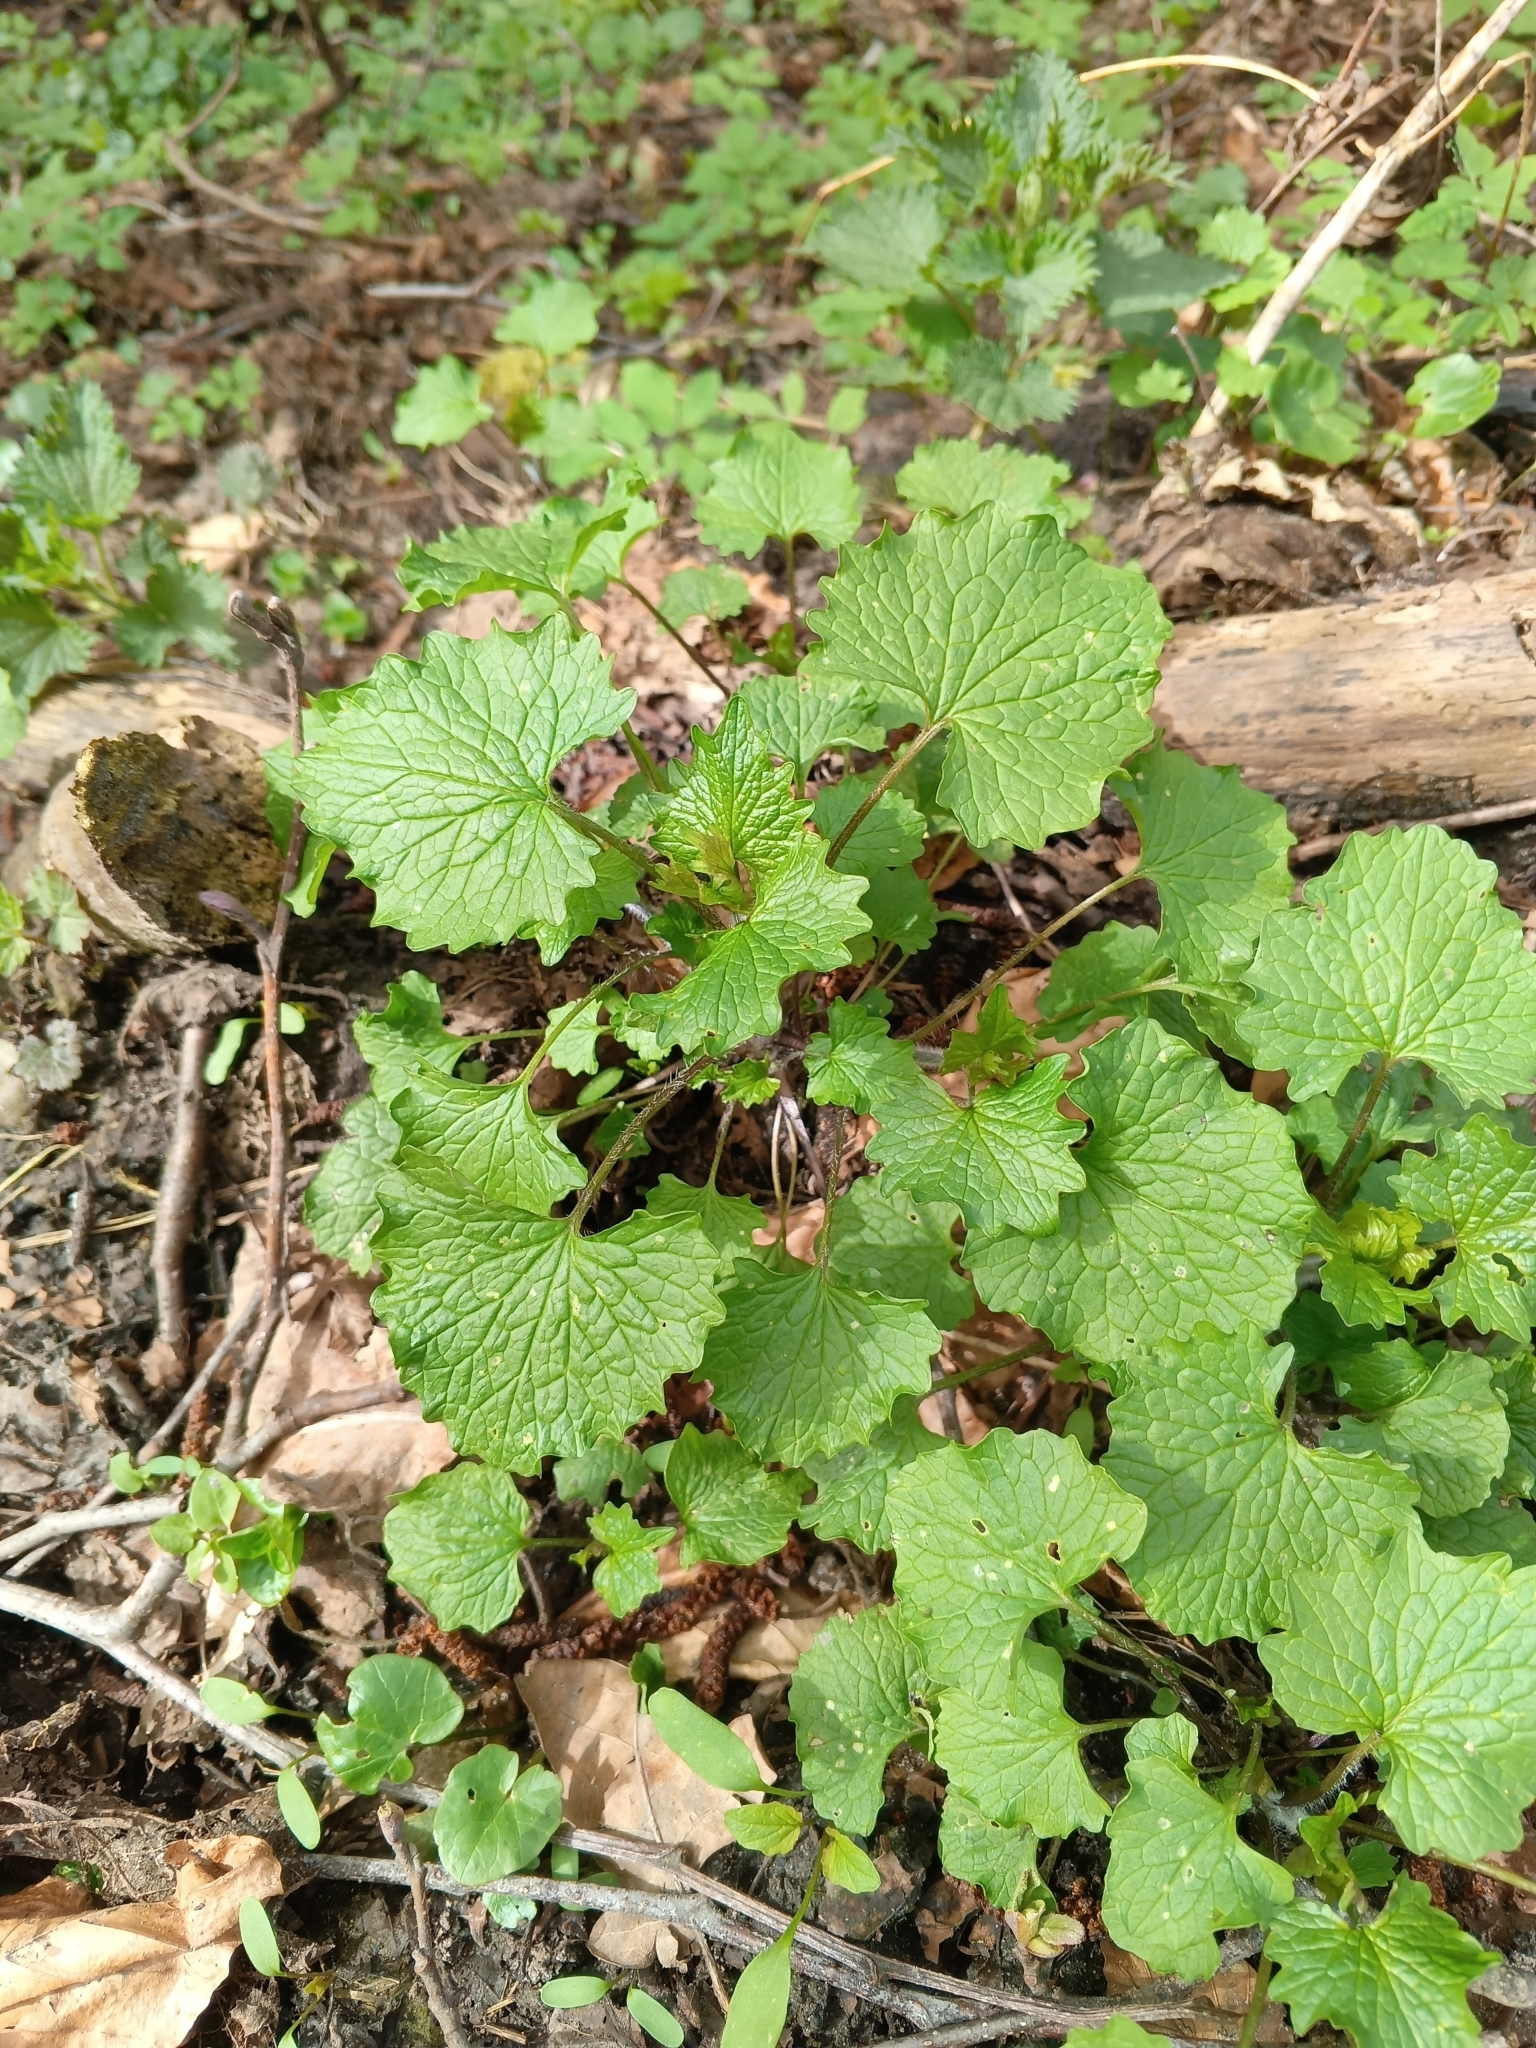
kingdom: Plantae
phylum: Tracheophyta
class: Magnoliopsida
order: Brassicales
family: Brassicaceae
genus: Alliaria
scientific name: Alliaria petiolata
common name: Garlic mustard
